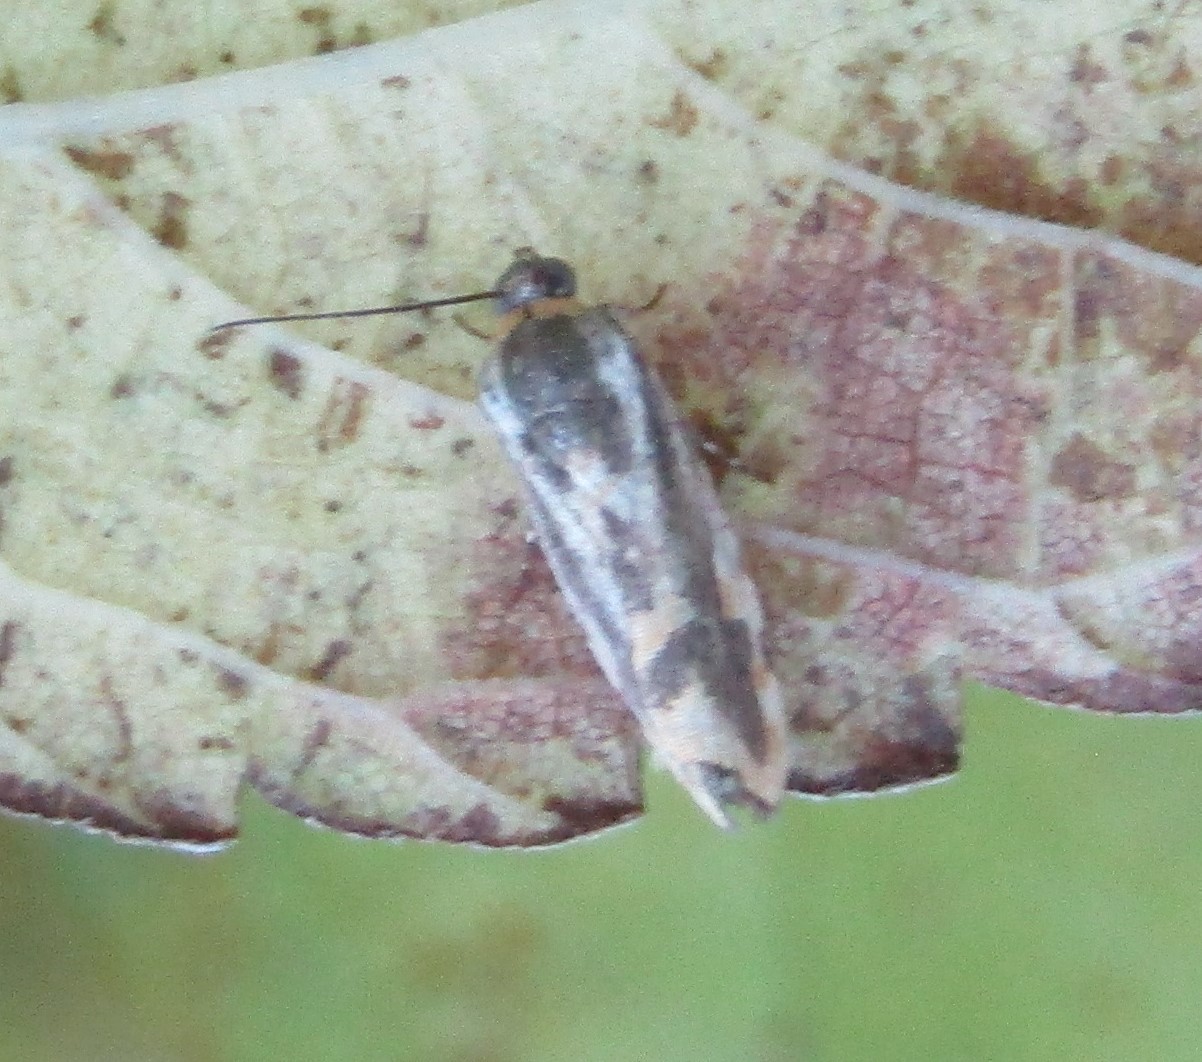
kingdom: Animalia
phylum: Arthropoda
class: Insecta
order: Lepidoptera
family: Noctuidae
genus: Acontia
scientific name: Acontia leo
